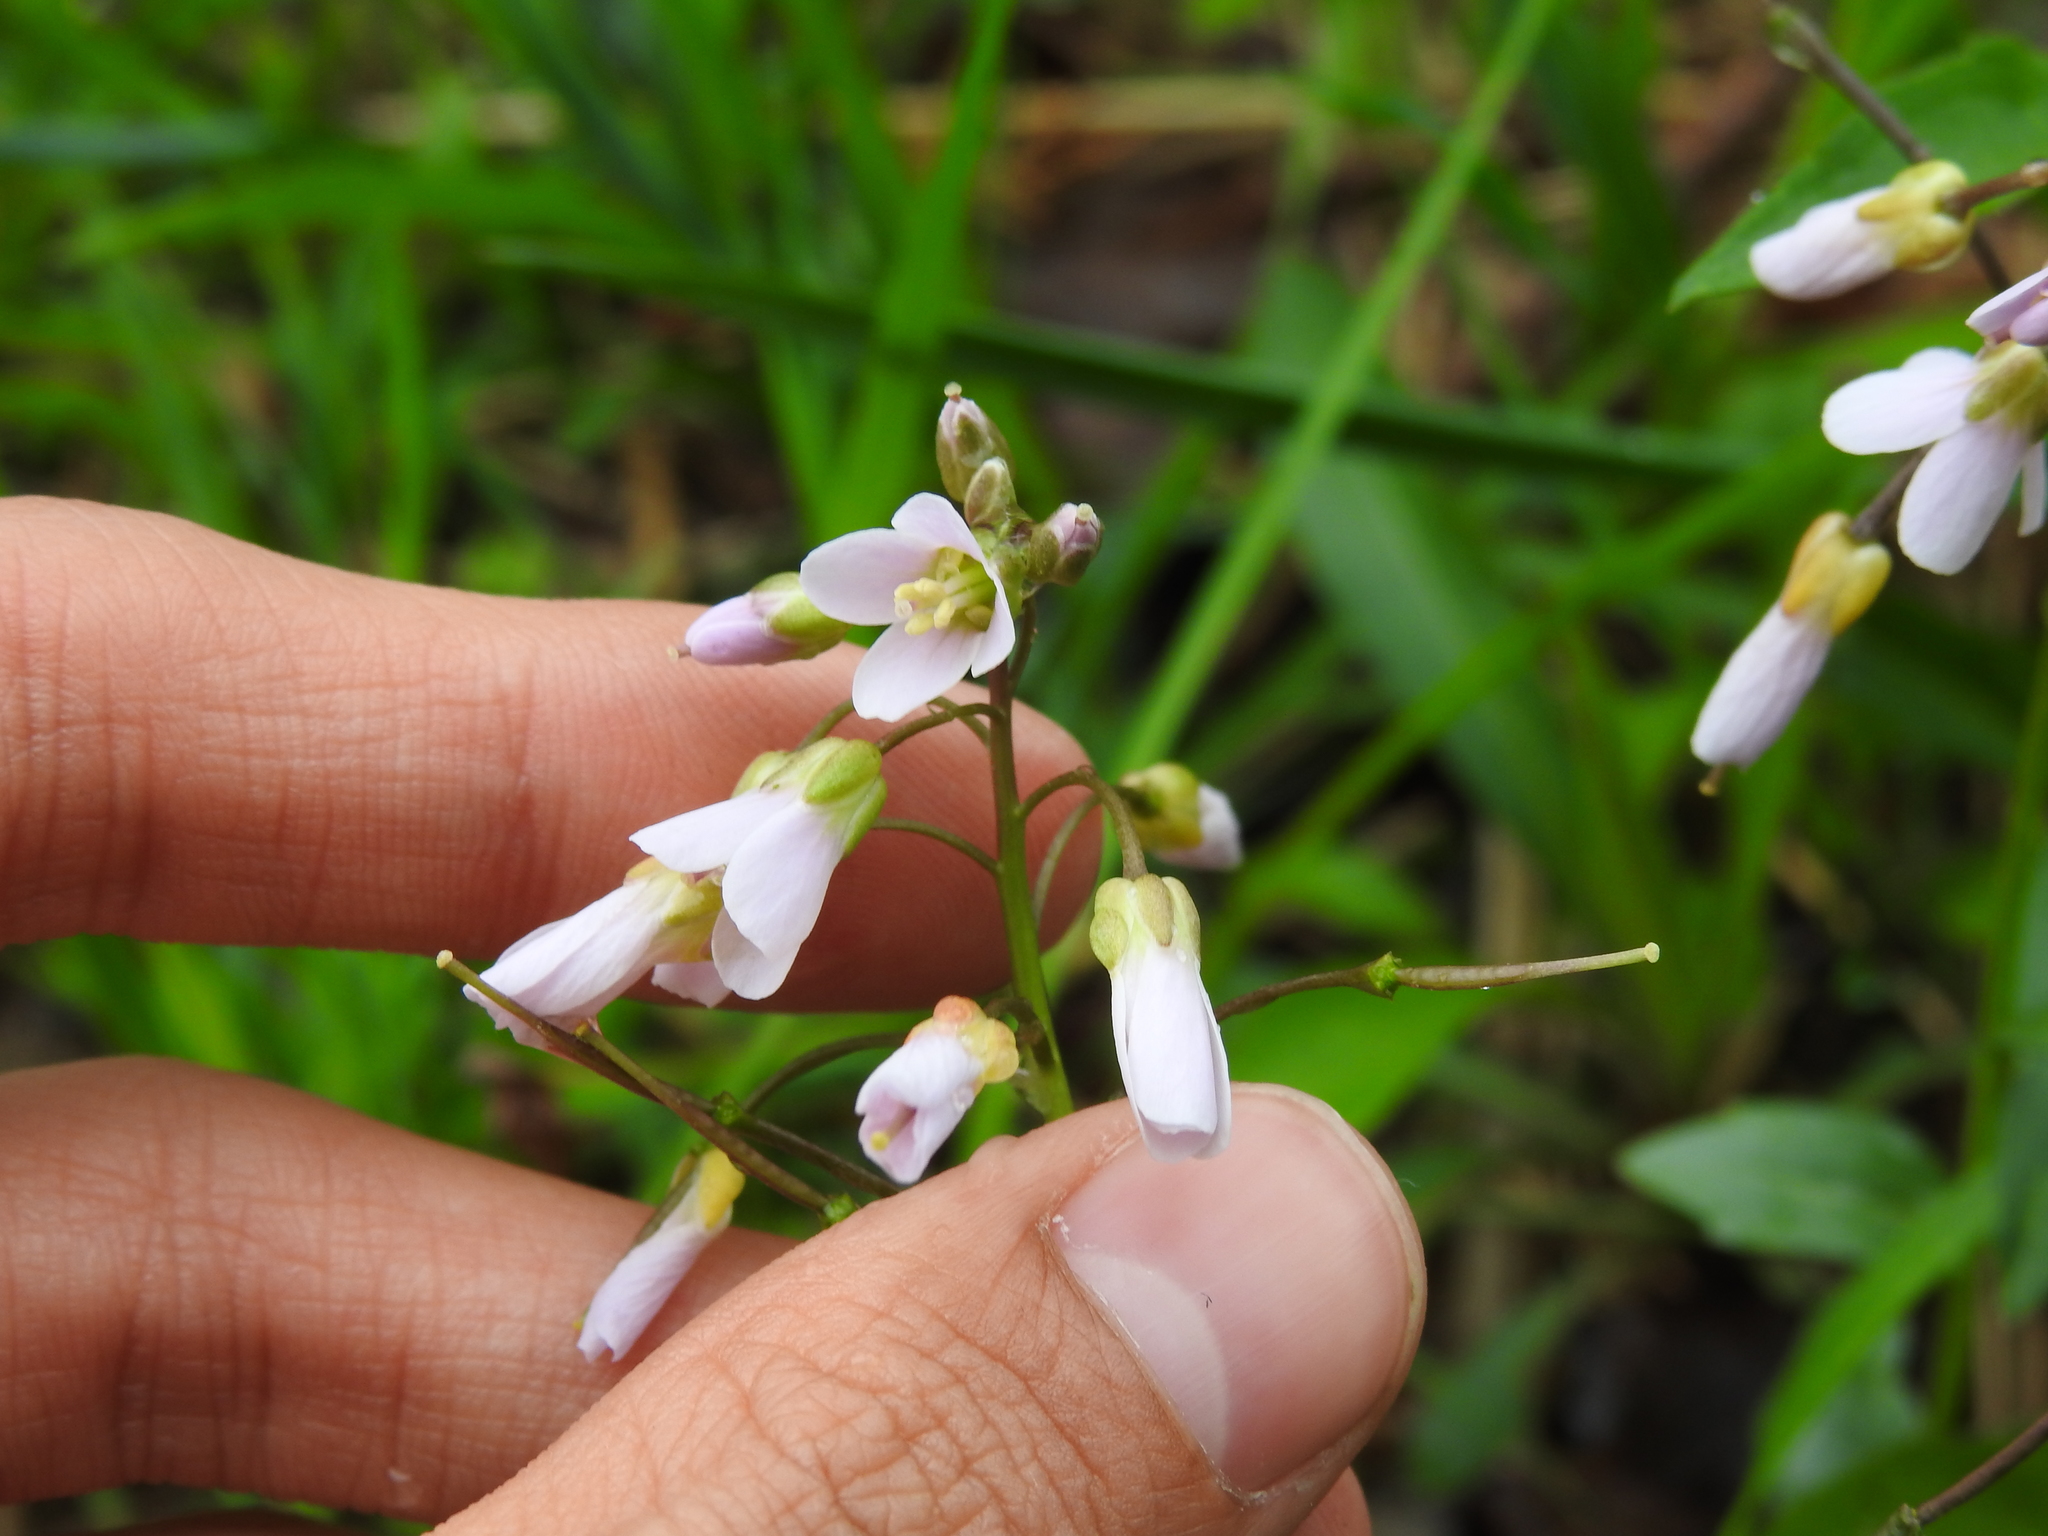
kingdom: Plantae
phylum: Tracheophyta
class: Magnoliopsida
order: Brassicales
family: Brassicaceae
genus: Cardamine
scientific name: Cardamine douglassii
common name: Purple cress
